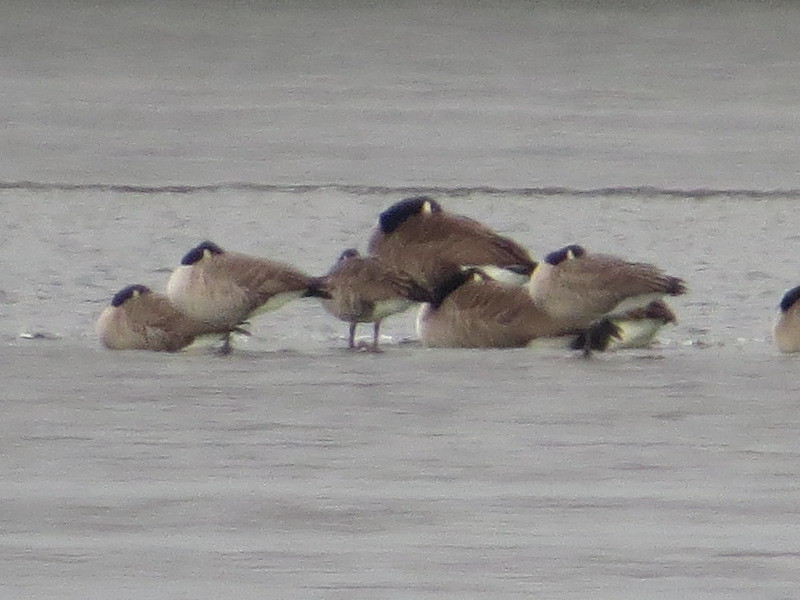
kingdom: Animalia
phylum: Chordata
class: Aves
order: Anseriformes
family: Anatidae
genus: Branta
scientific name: Branta hutchinsii
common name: Cackling goose
